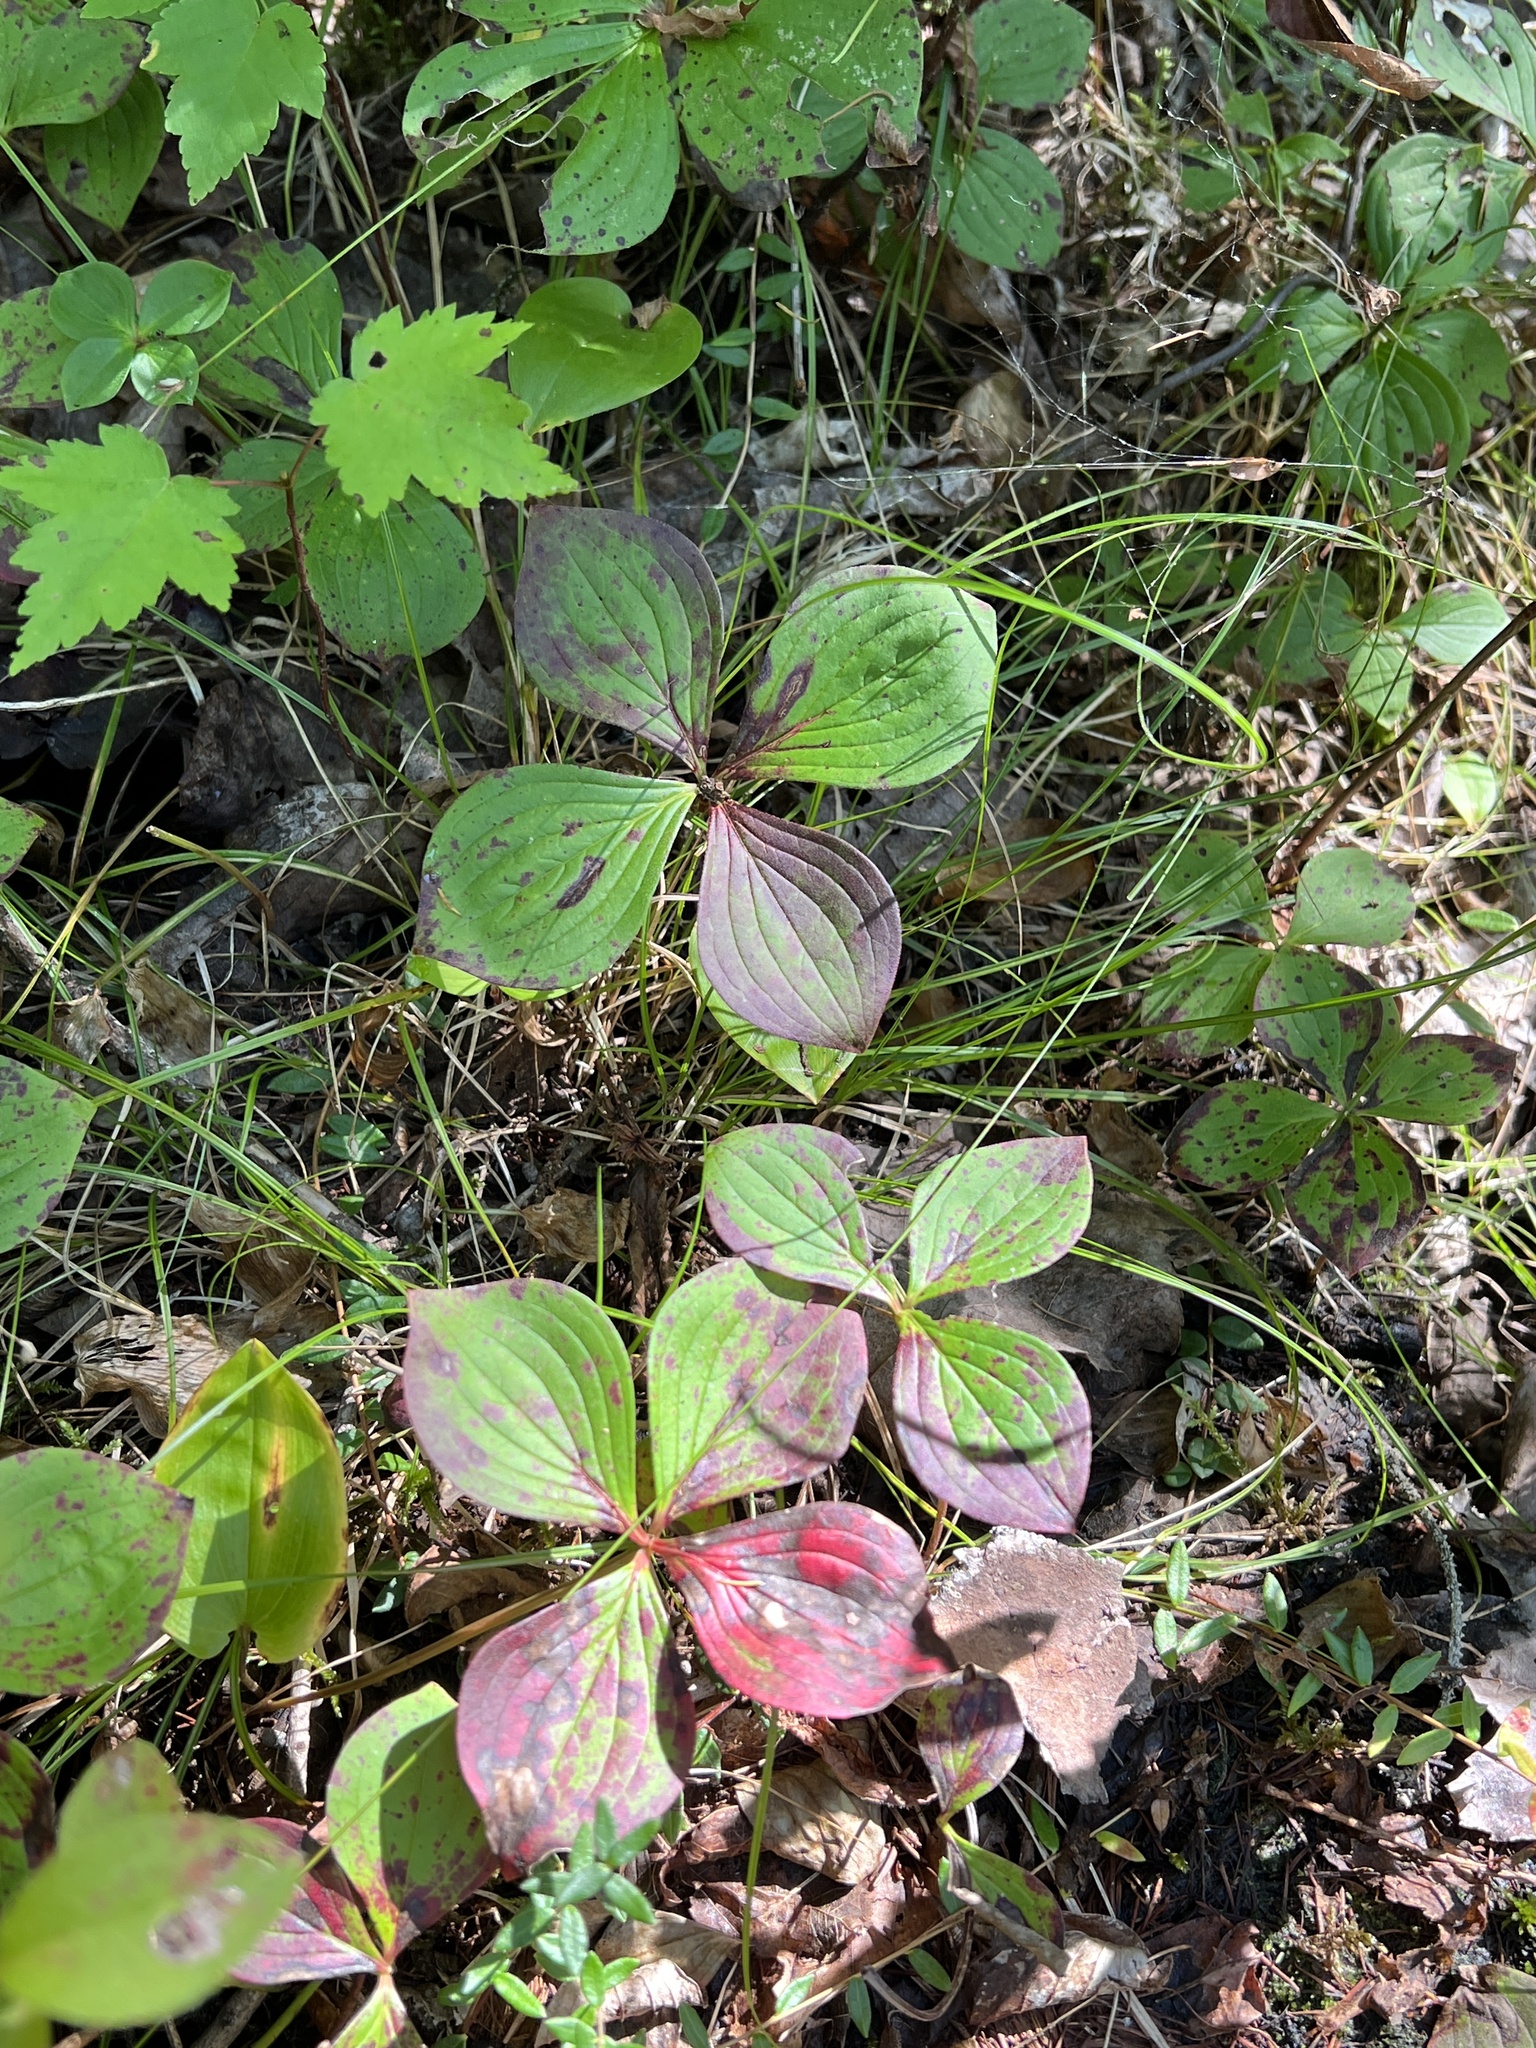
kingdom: Plantae
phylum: Tracheophyta
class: Magnoliopsida
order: Cornales
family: Cornaceae
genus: Cornus
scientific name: Cornus canadensis
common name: Creeping dogwood
